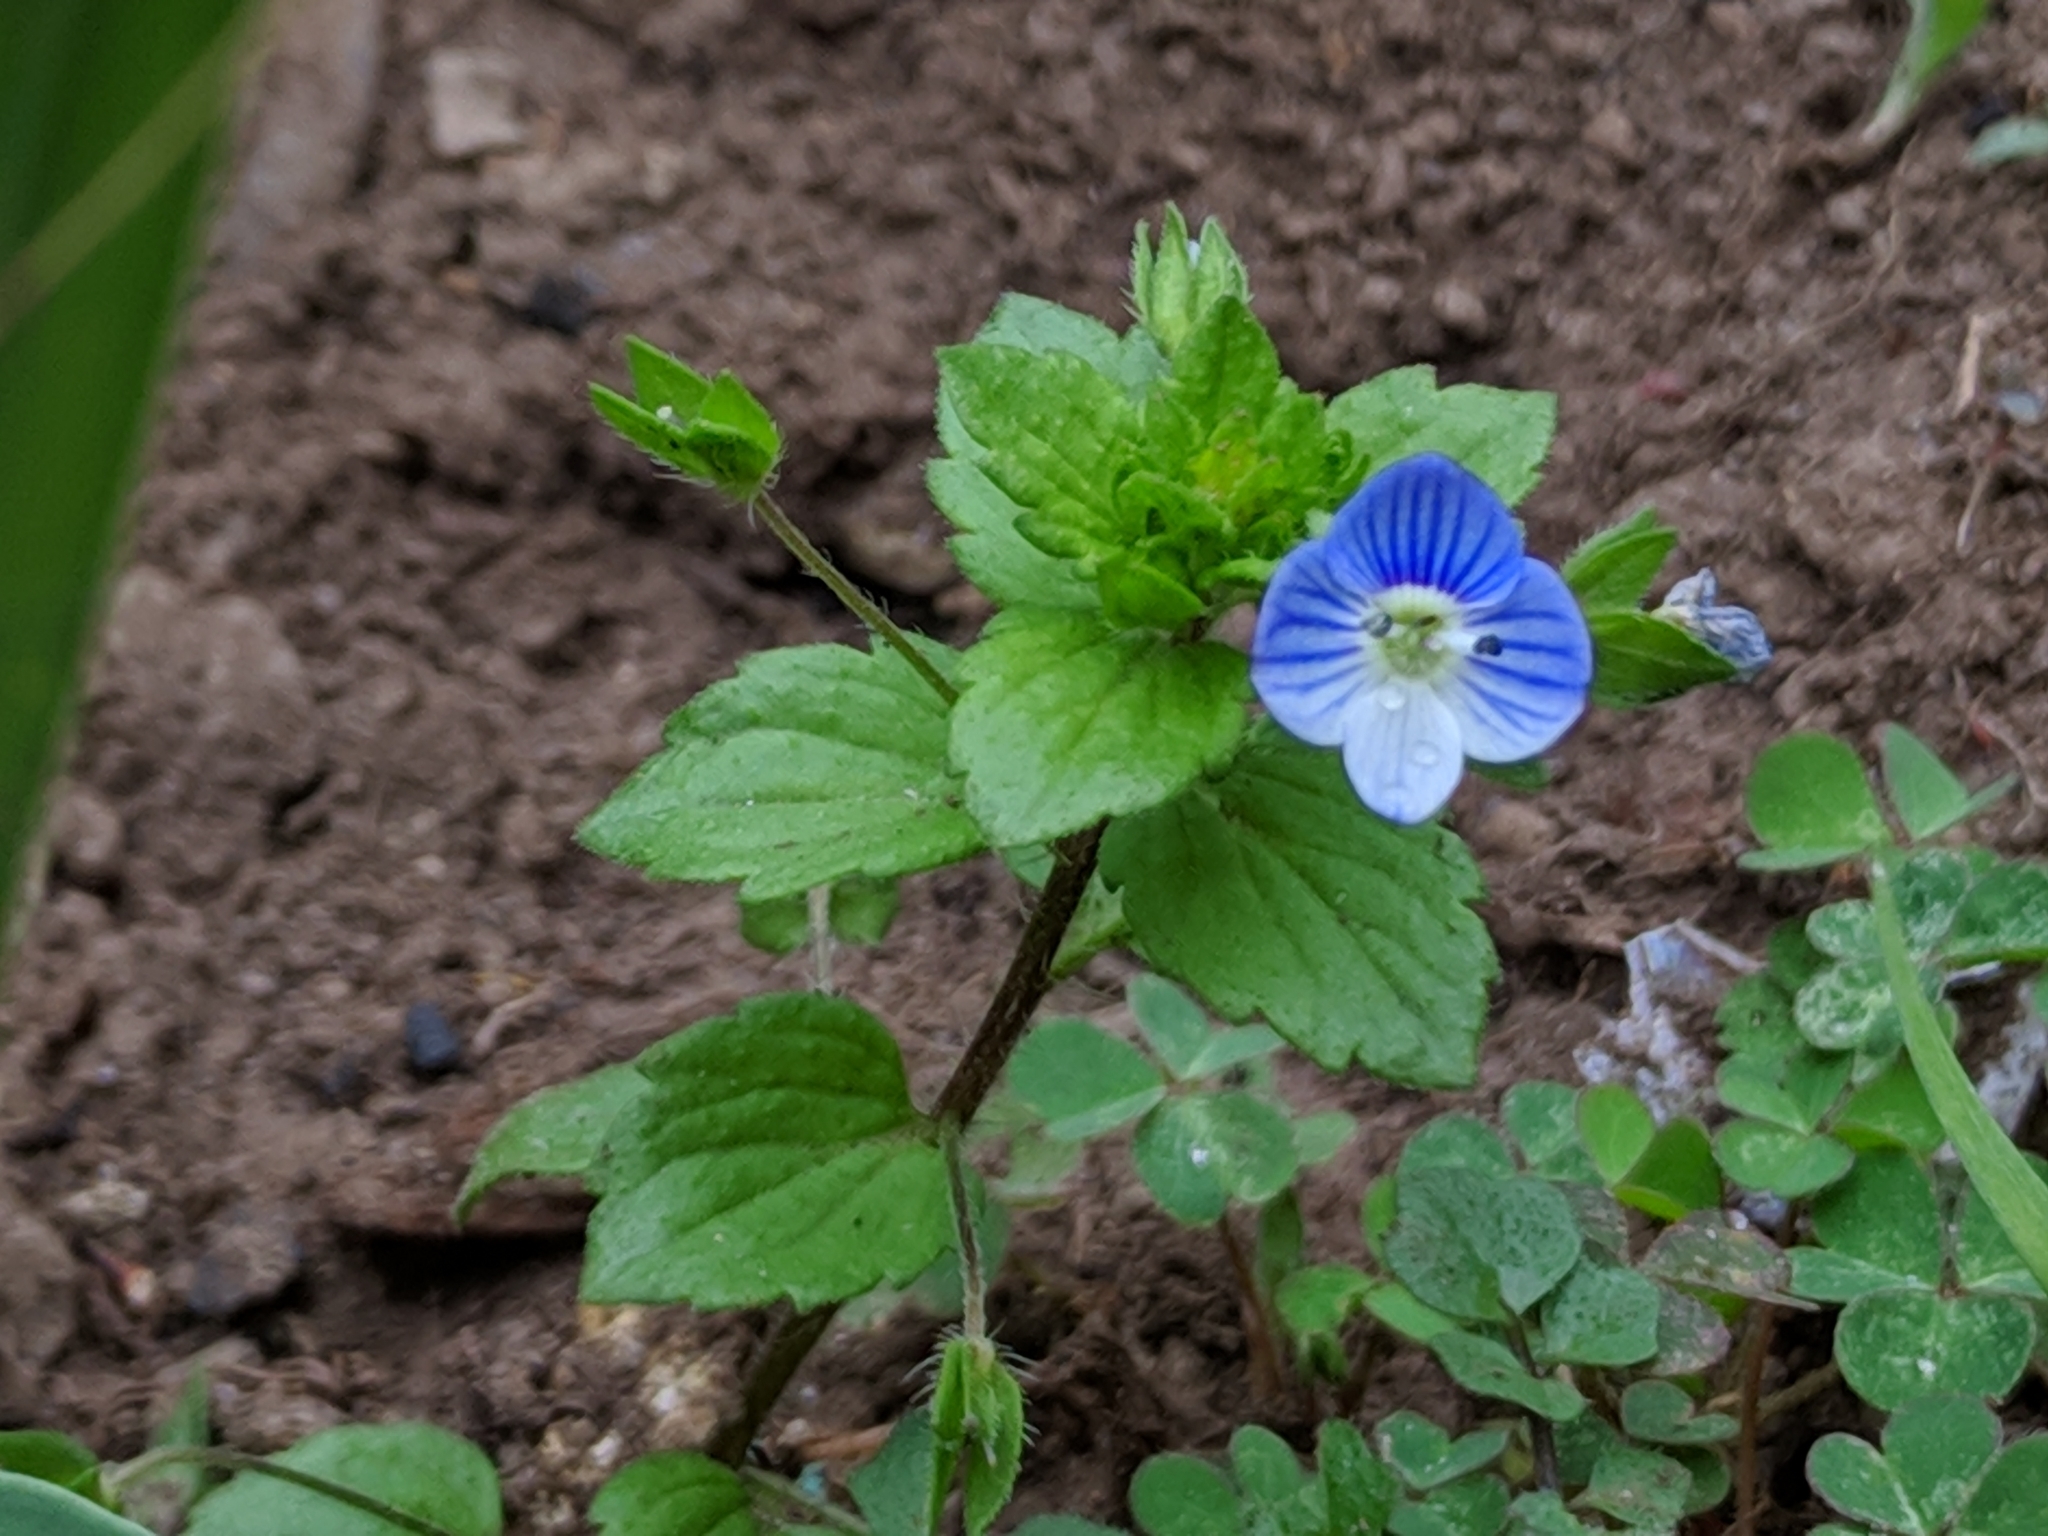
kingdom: Plantae
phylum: Tracheophyta
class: Magnoliopsida
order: Lamiales
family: Plantaginaceae
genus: Veronica
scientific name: Veronica persica
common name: Common field-speedwell
